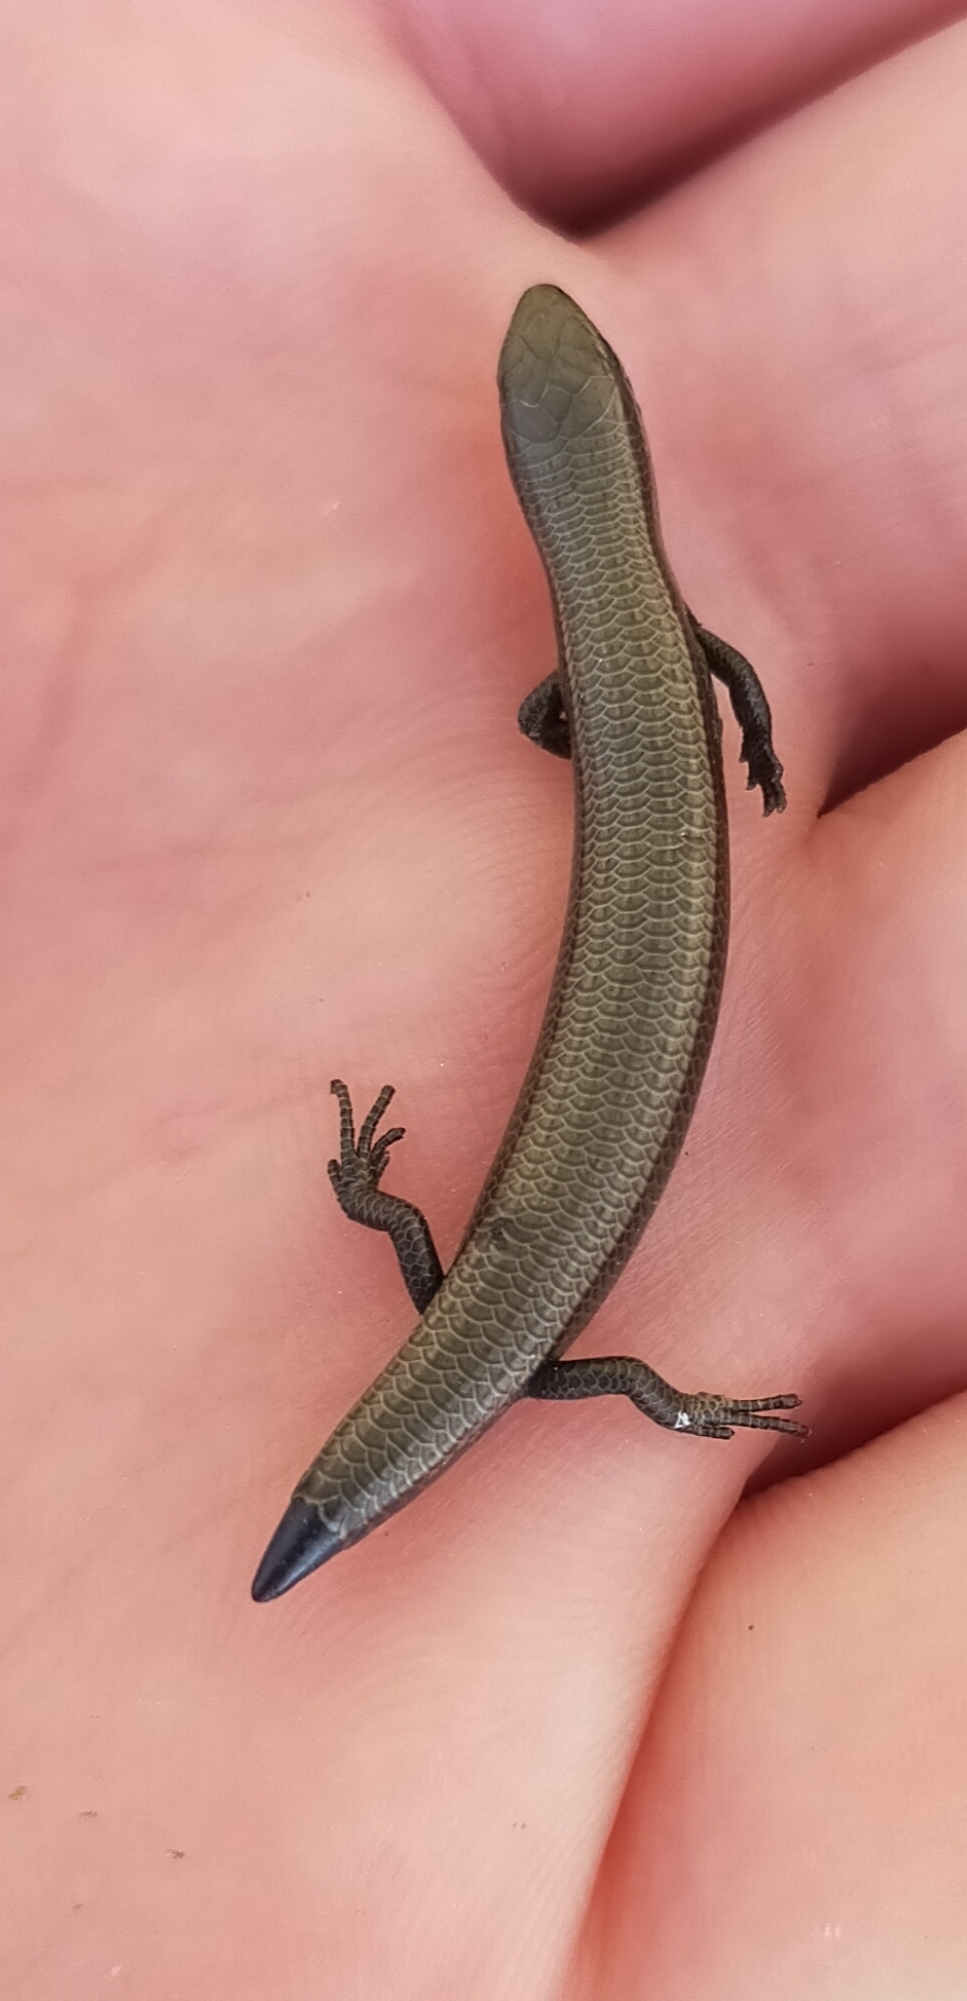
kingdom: Animalia
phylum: Chordata
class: Squamata
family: Scincidae
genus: Ablepharus
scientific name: Ablepharus kitaibelii
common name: Juniper skink
